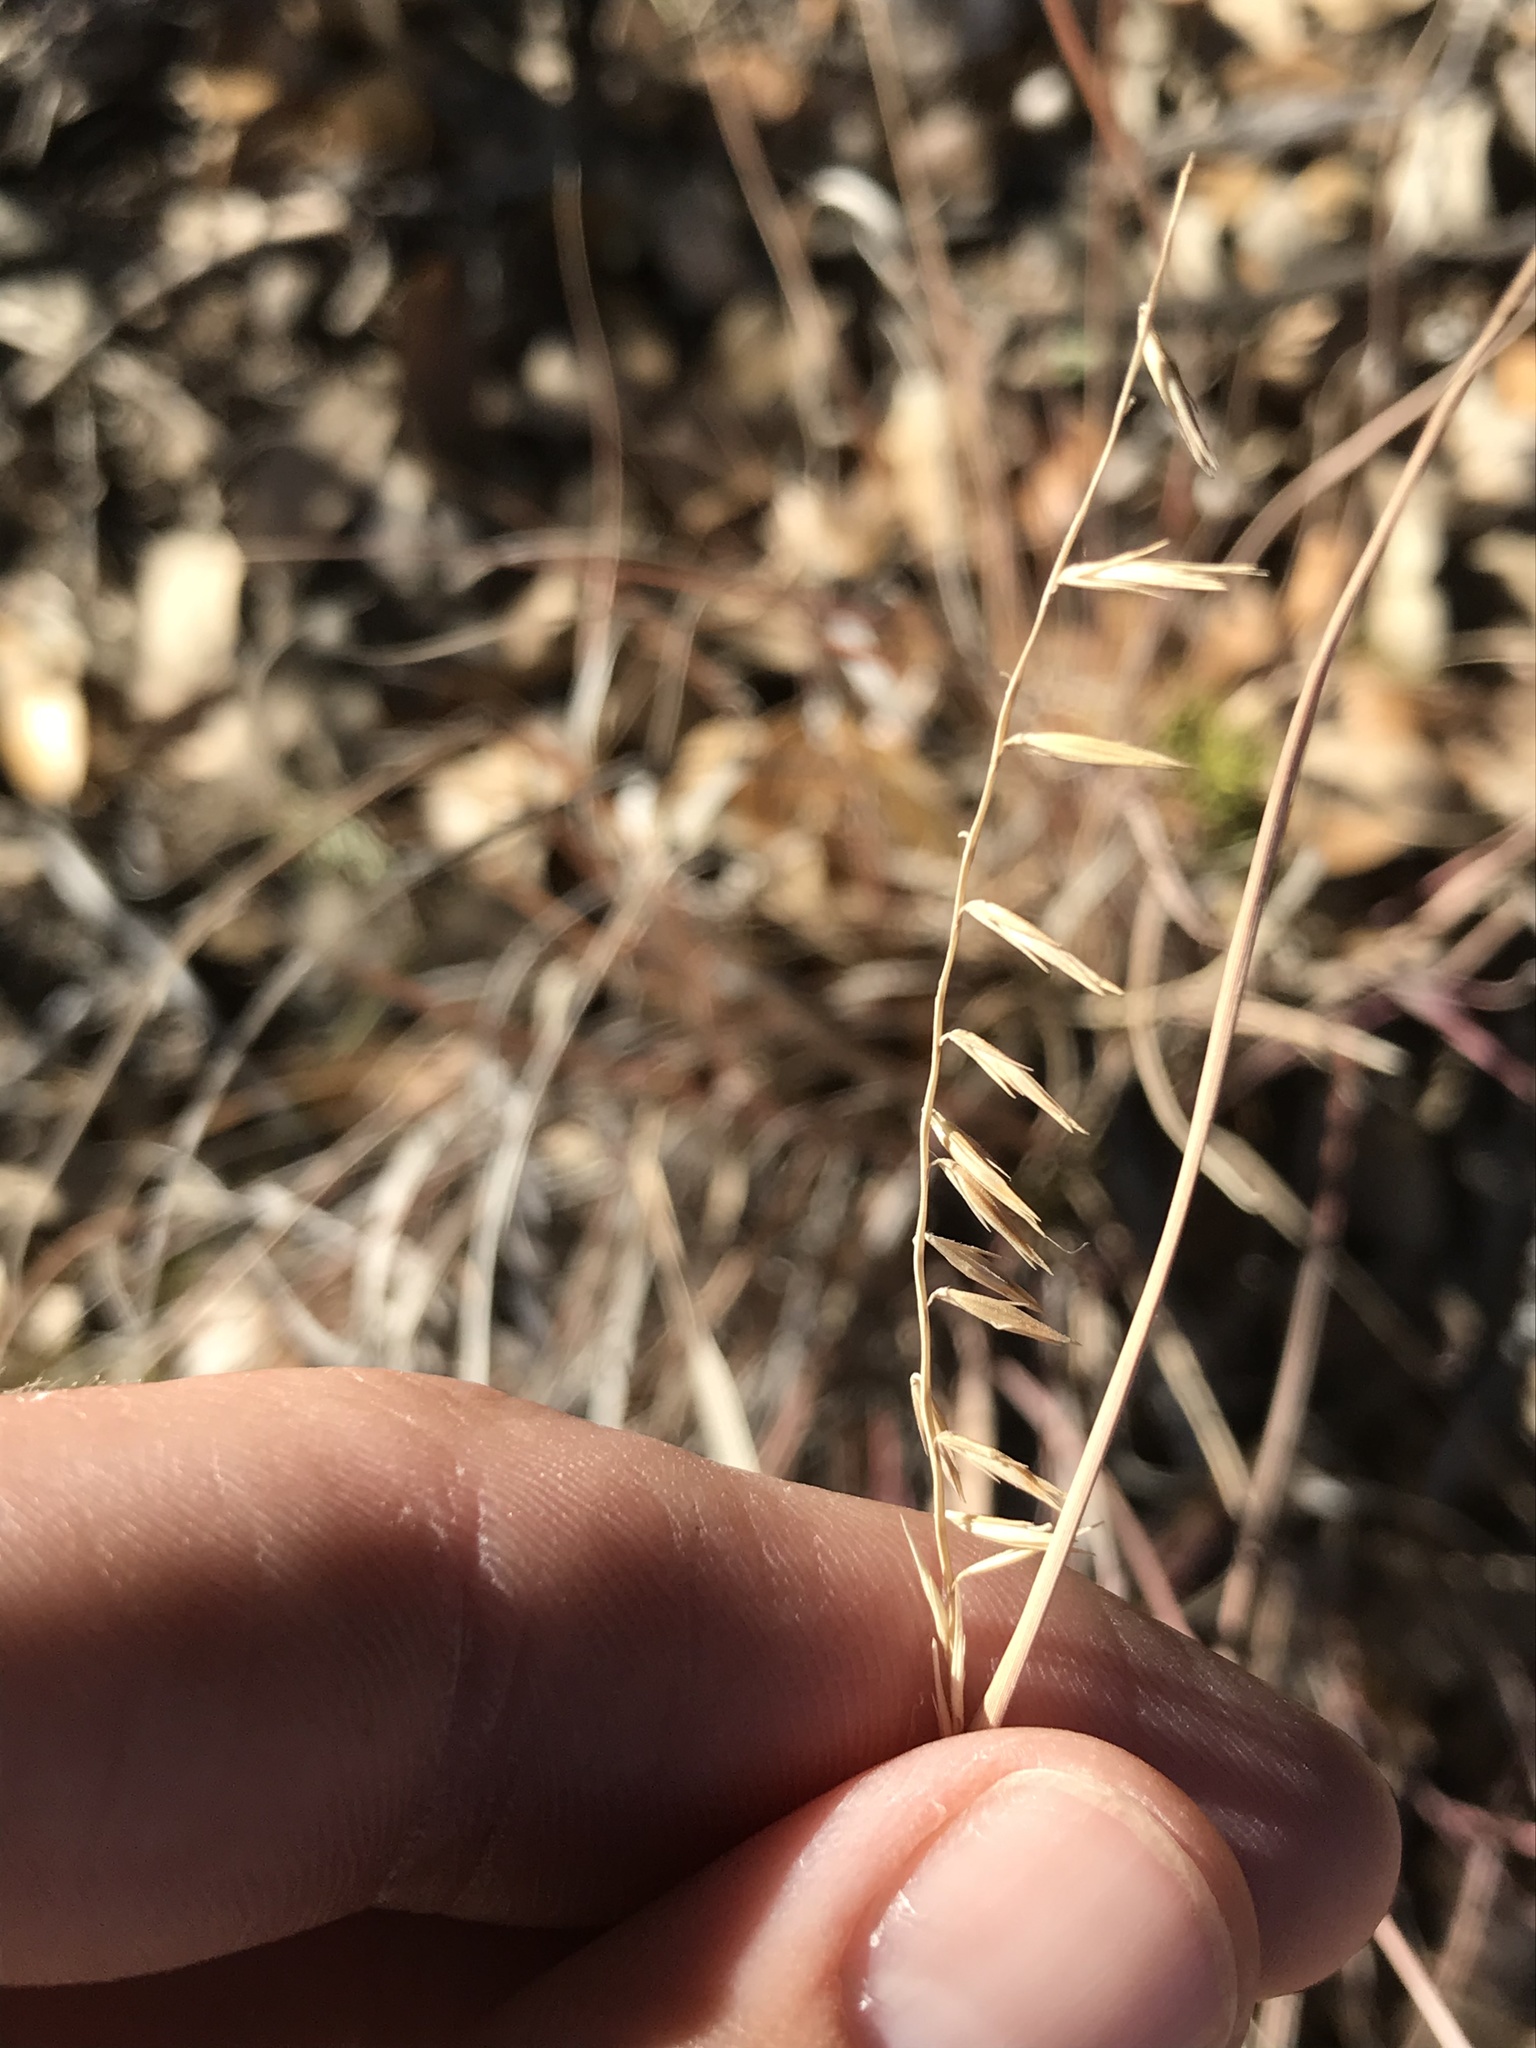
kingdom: Plantae
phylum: Tracheophyta
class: Liliopsida
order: Poales
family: Poaceae
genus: Bouteloua
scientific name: Bouteloua curtipendula
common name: Side-oats grama
